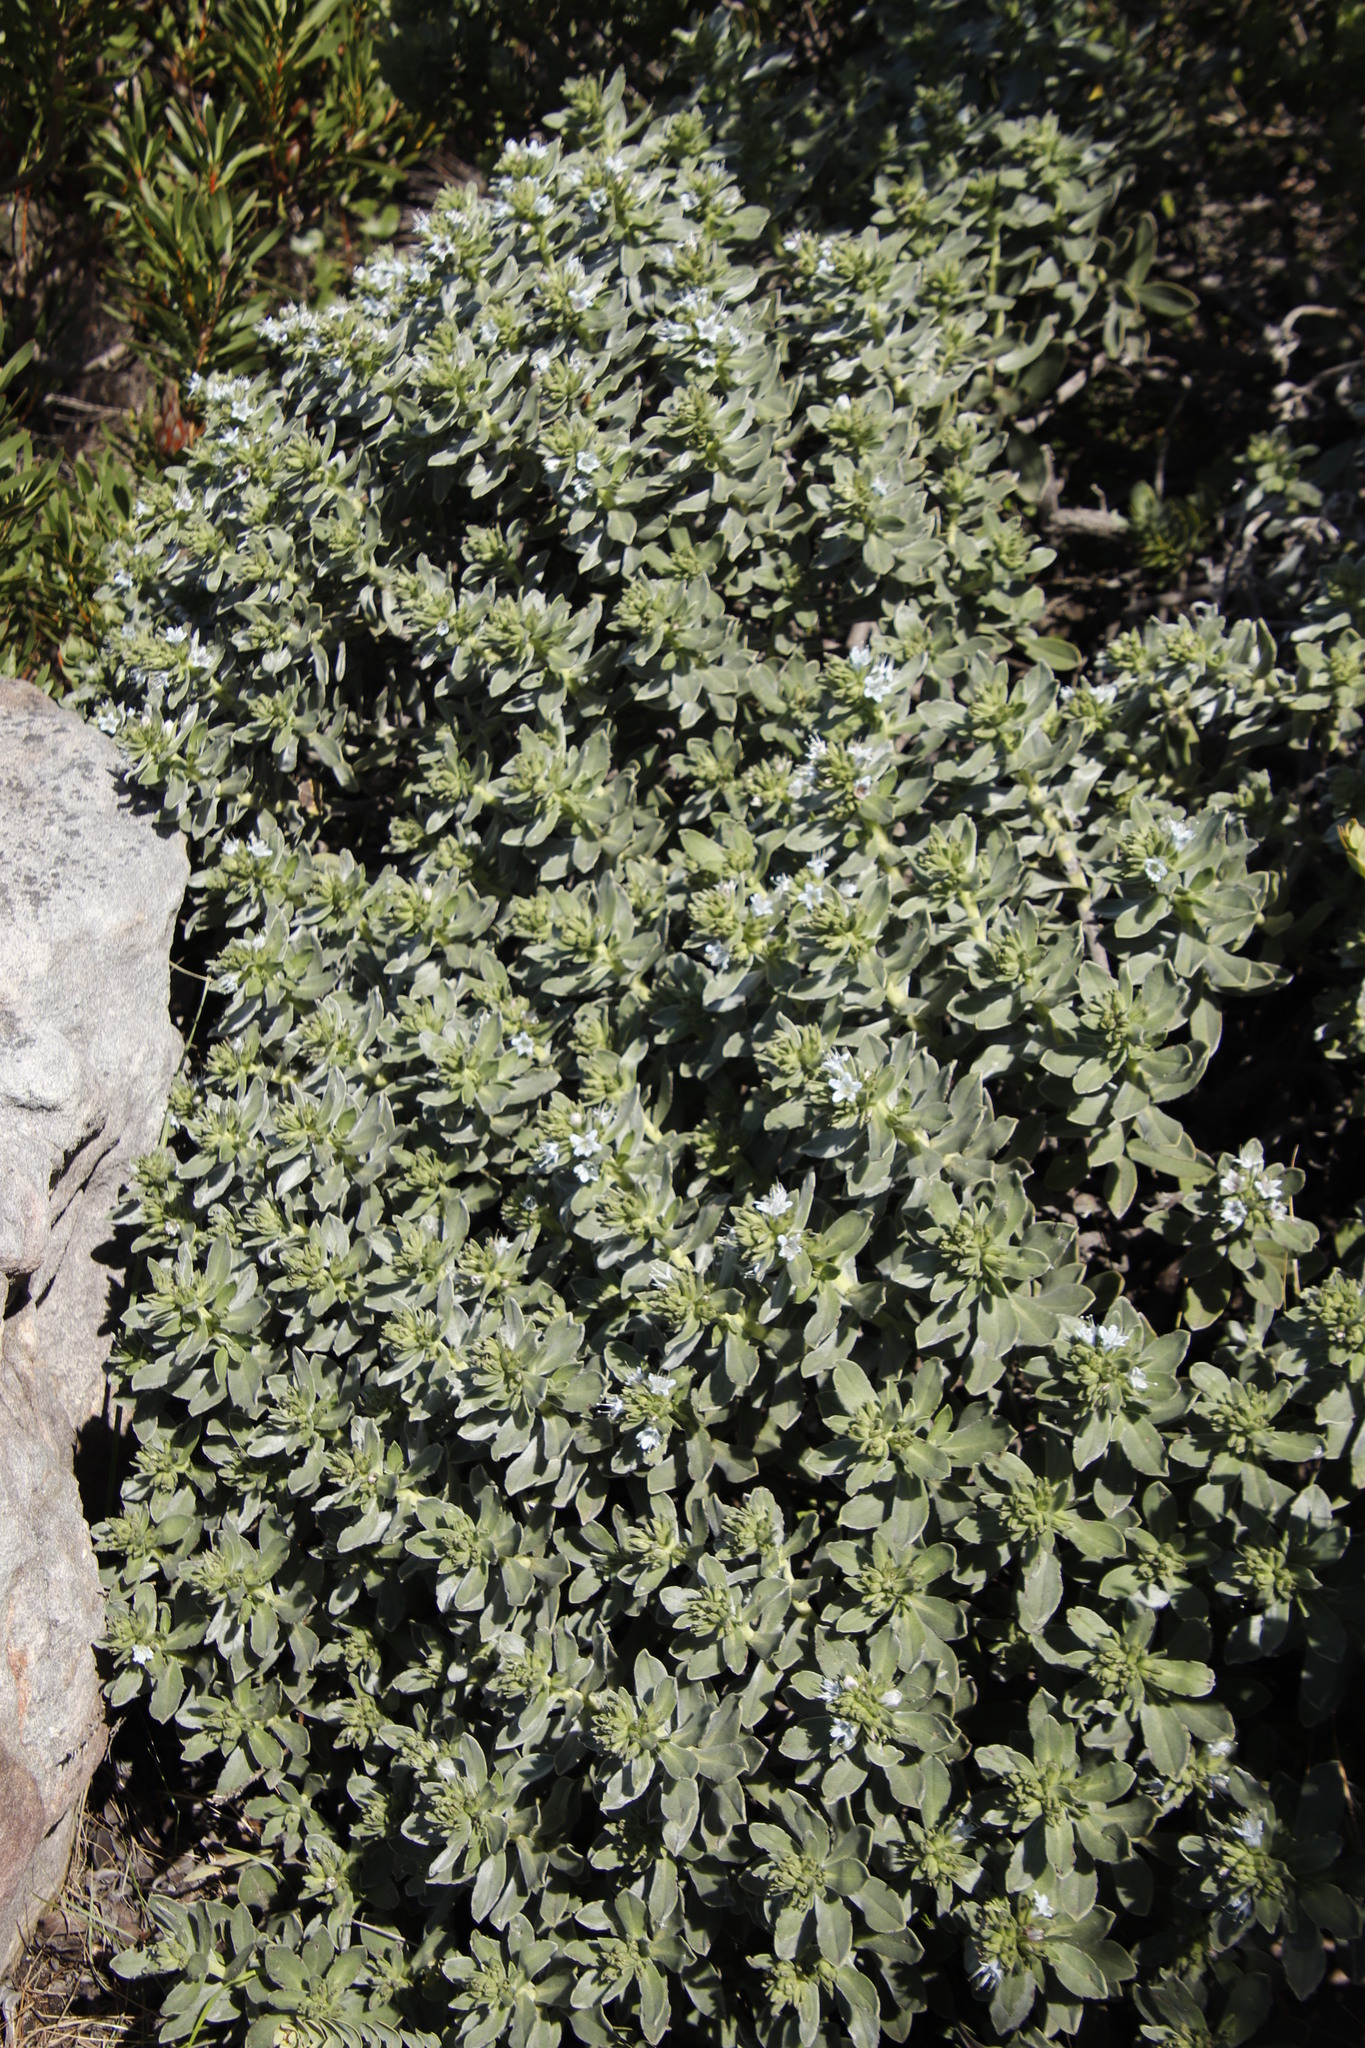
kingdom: Plantae
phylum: Tracheophyta
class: Magnoliopsida
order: Boraginales
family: Boraginaceae
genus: Lobostemon
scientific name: Lobostemon montanus
